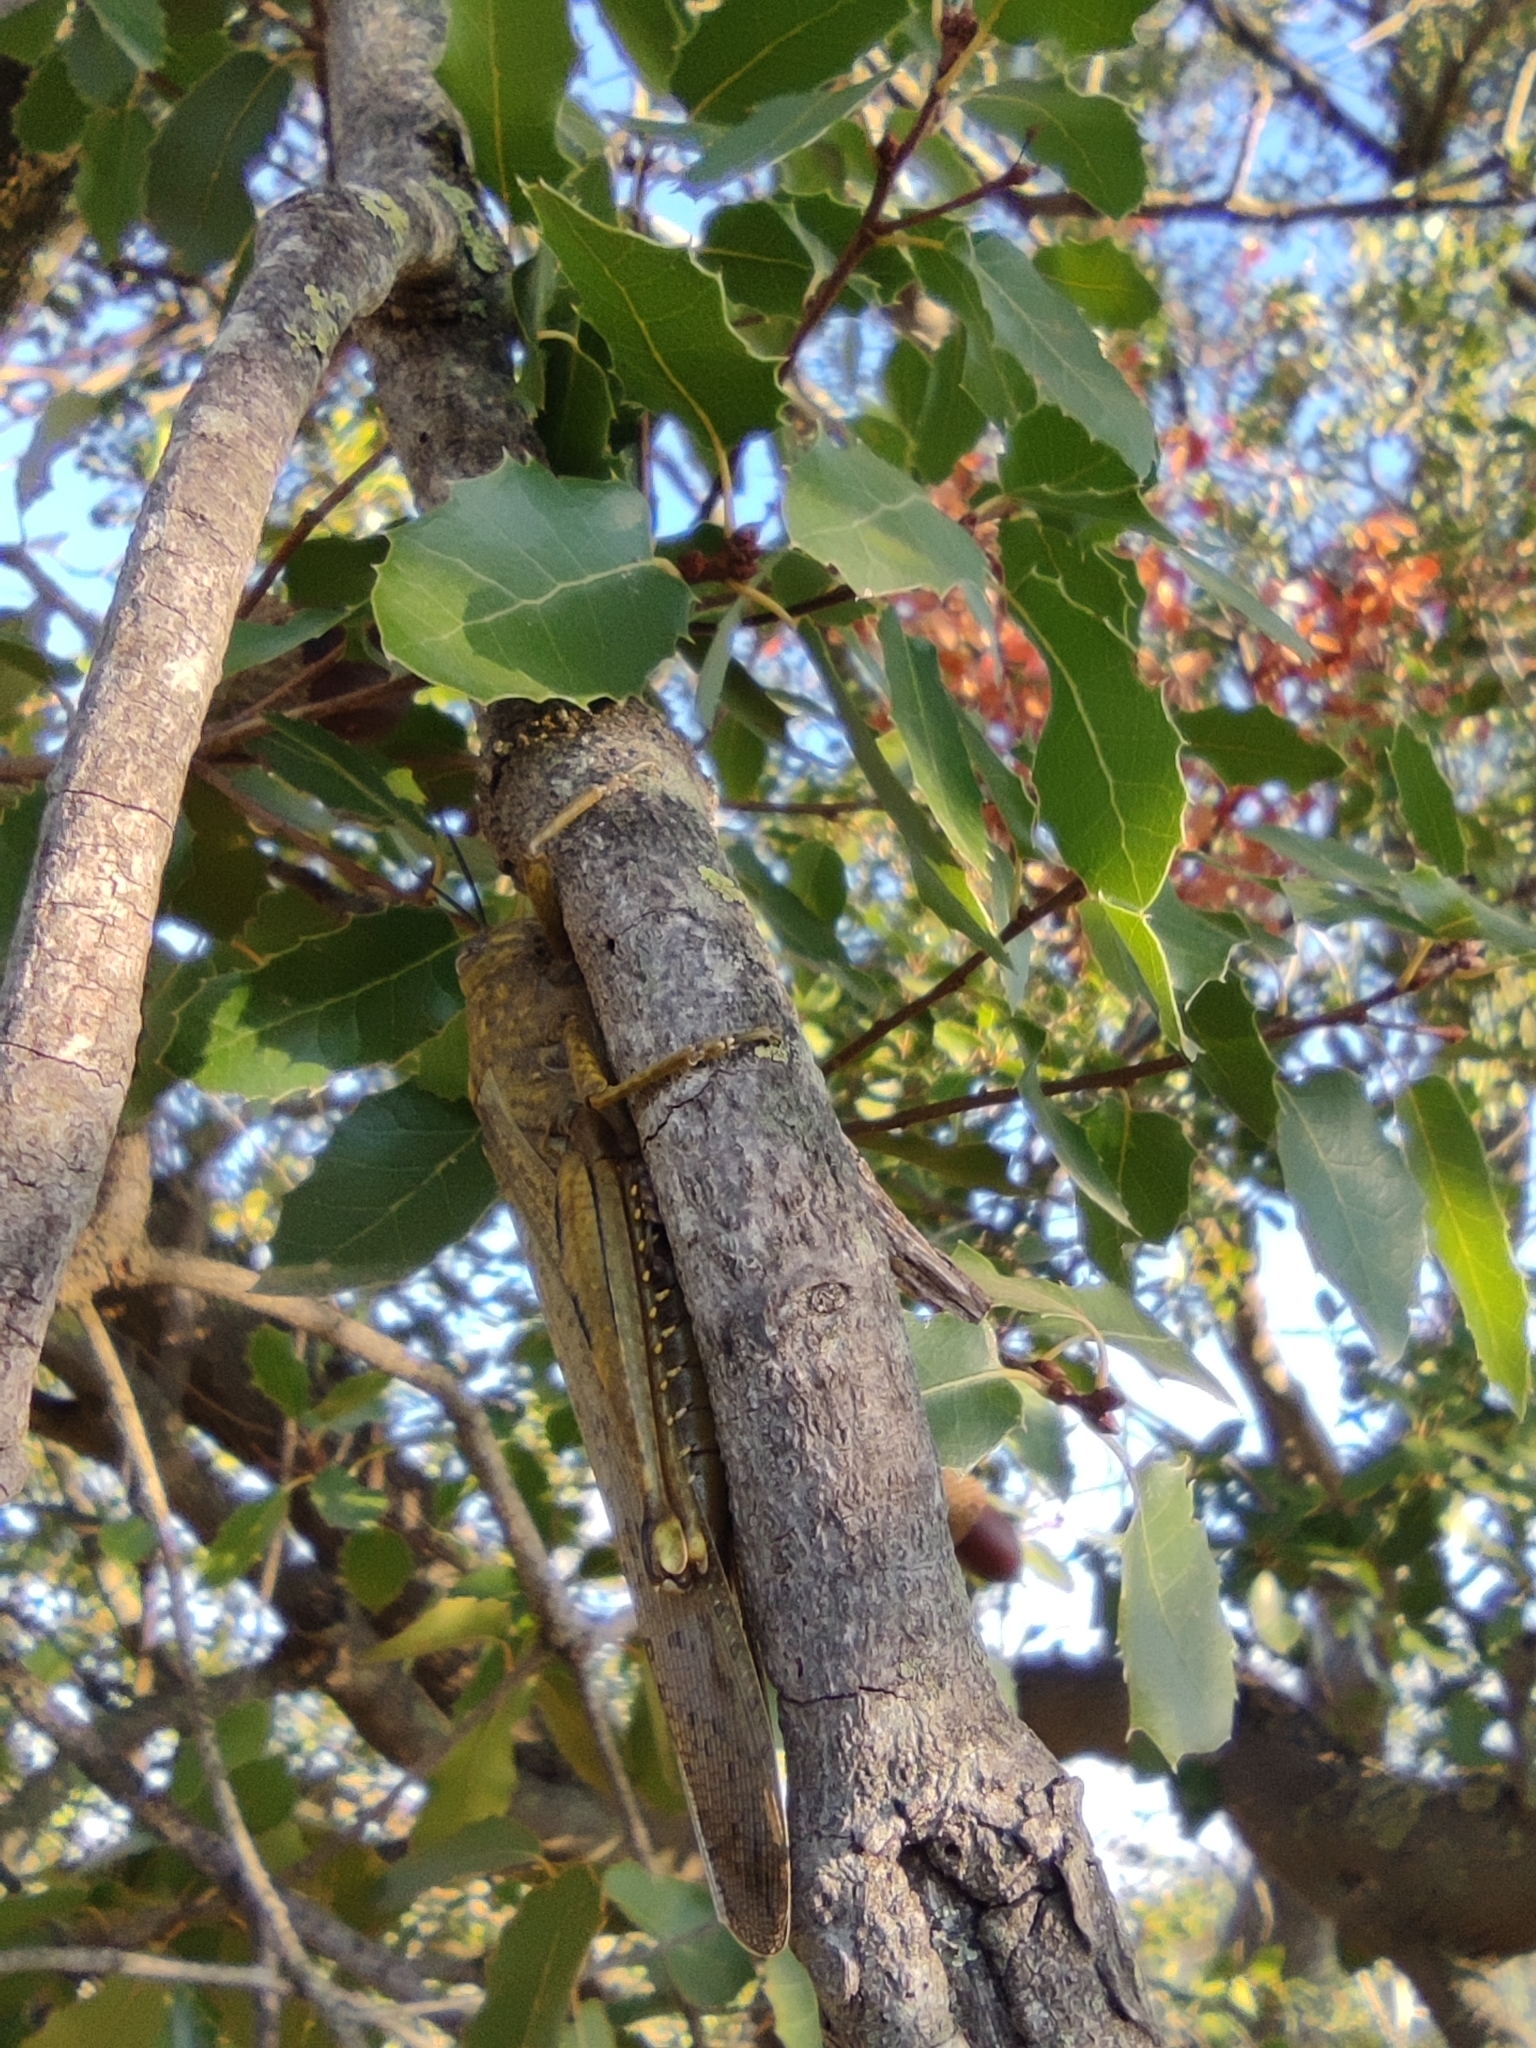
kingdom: Animalia
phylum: Arthropoda
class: Insecta
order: Orthoptera
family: Acrididae
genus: Anacridium
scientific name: Anacridium aegyptium
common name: Egyptian grasshopper
